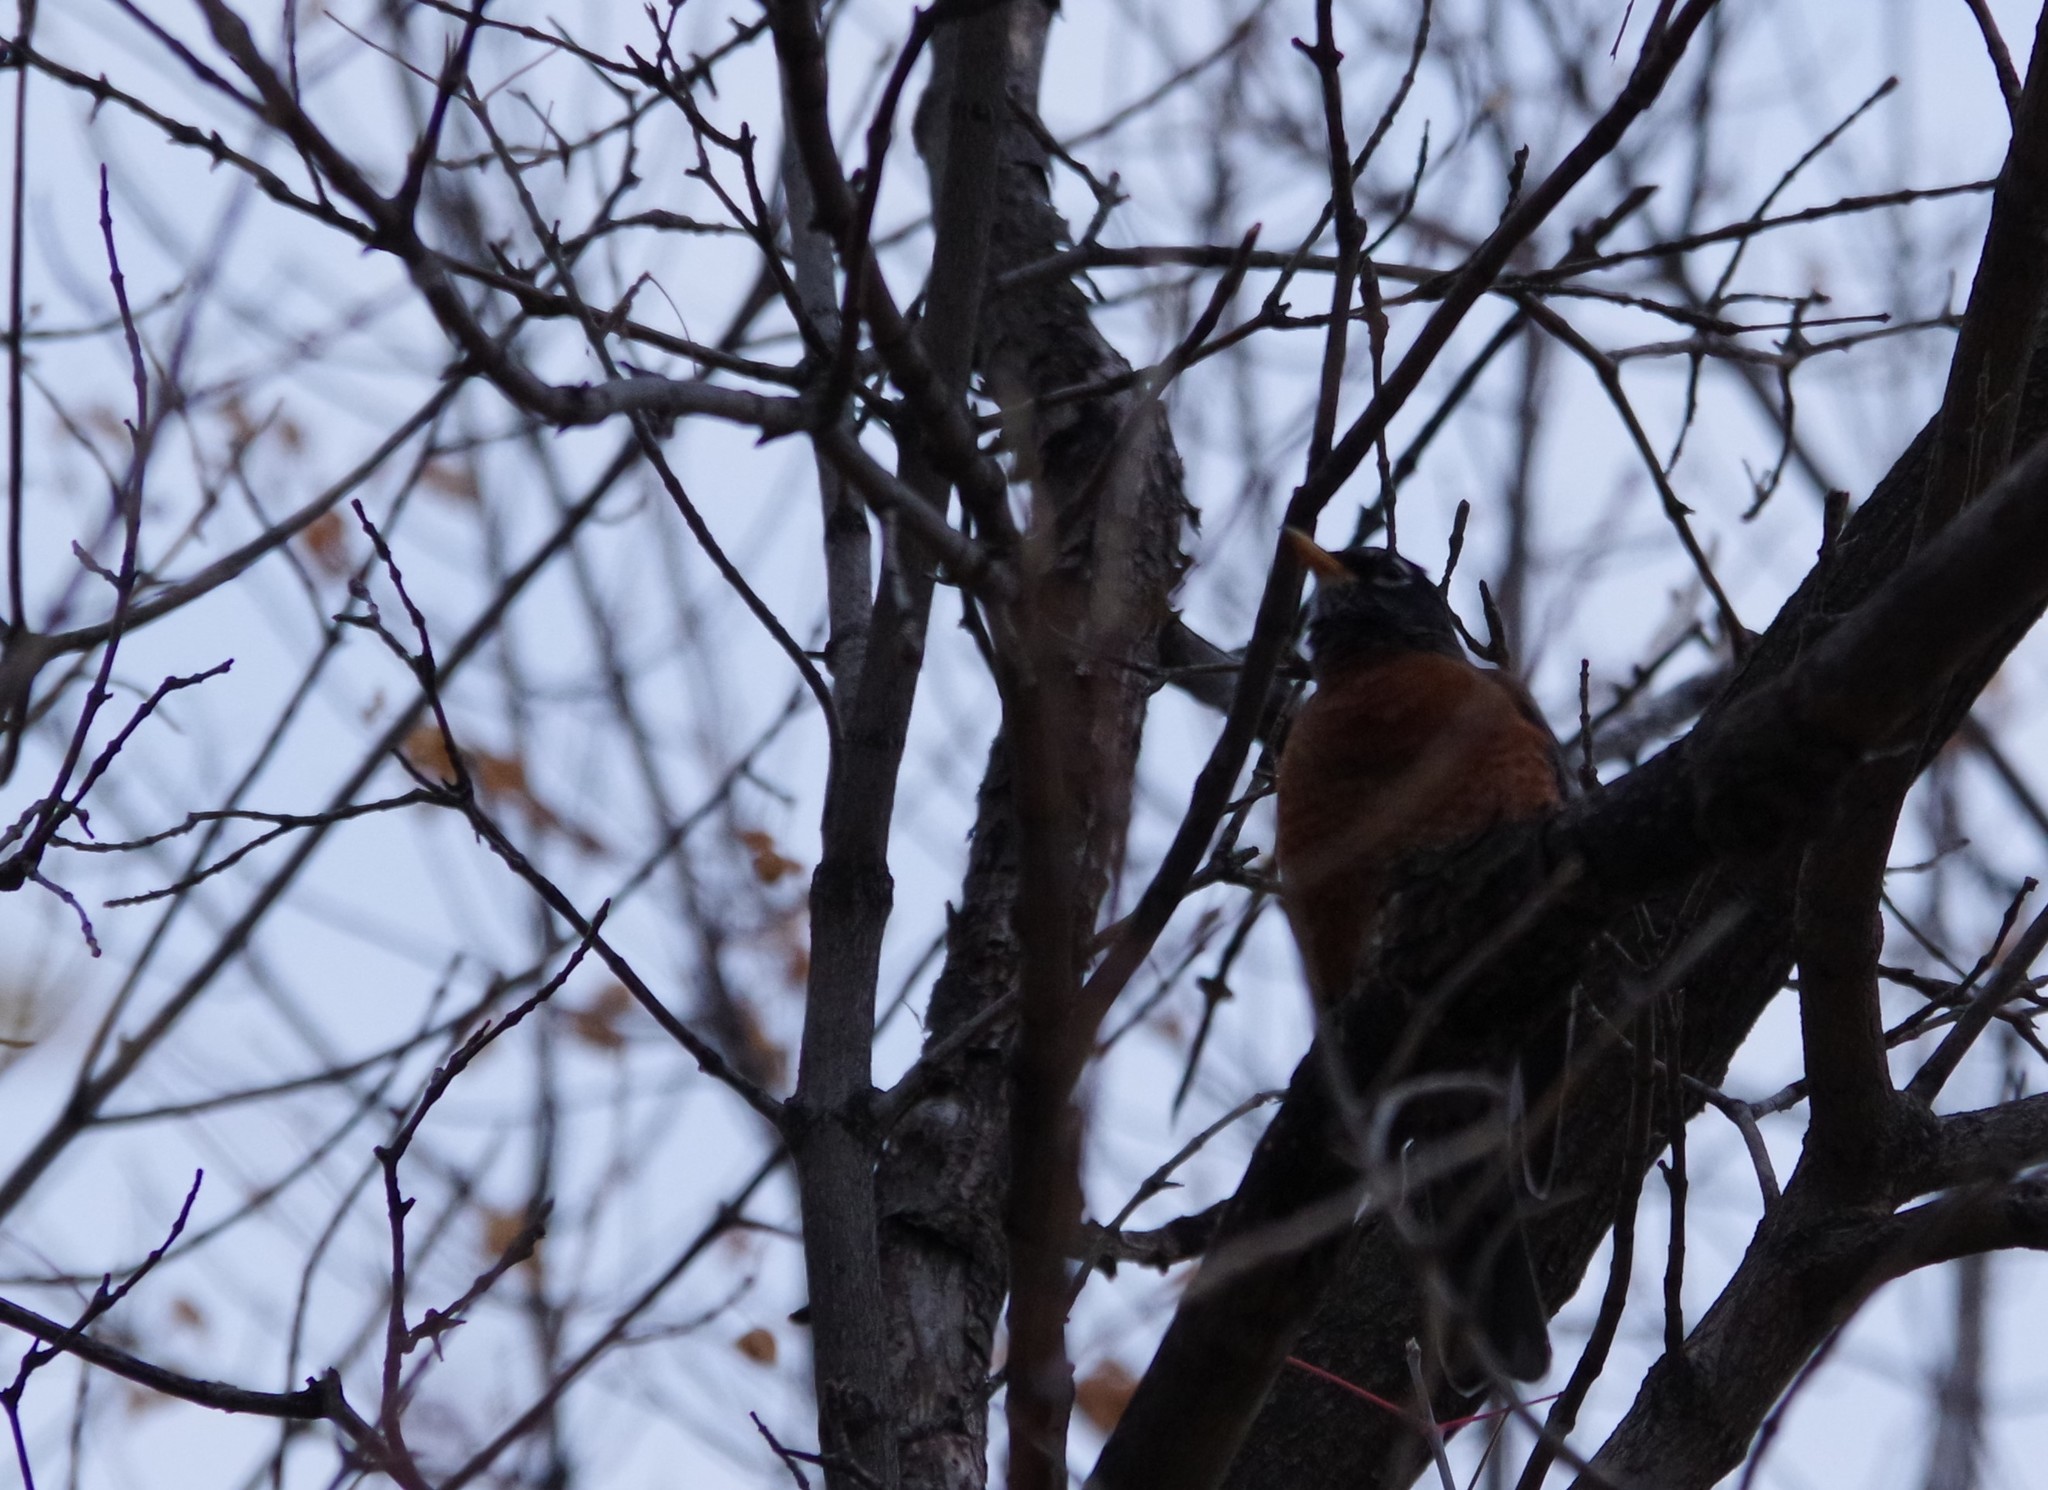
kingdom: Animalia
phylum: Chordata
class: Aves
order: Passeriformes
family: Turdidae
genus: Turdus
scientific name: Turdus migratorius
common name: American robin
